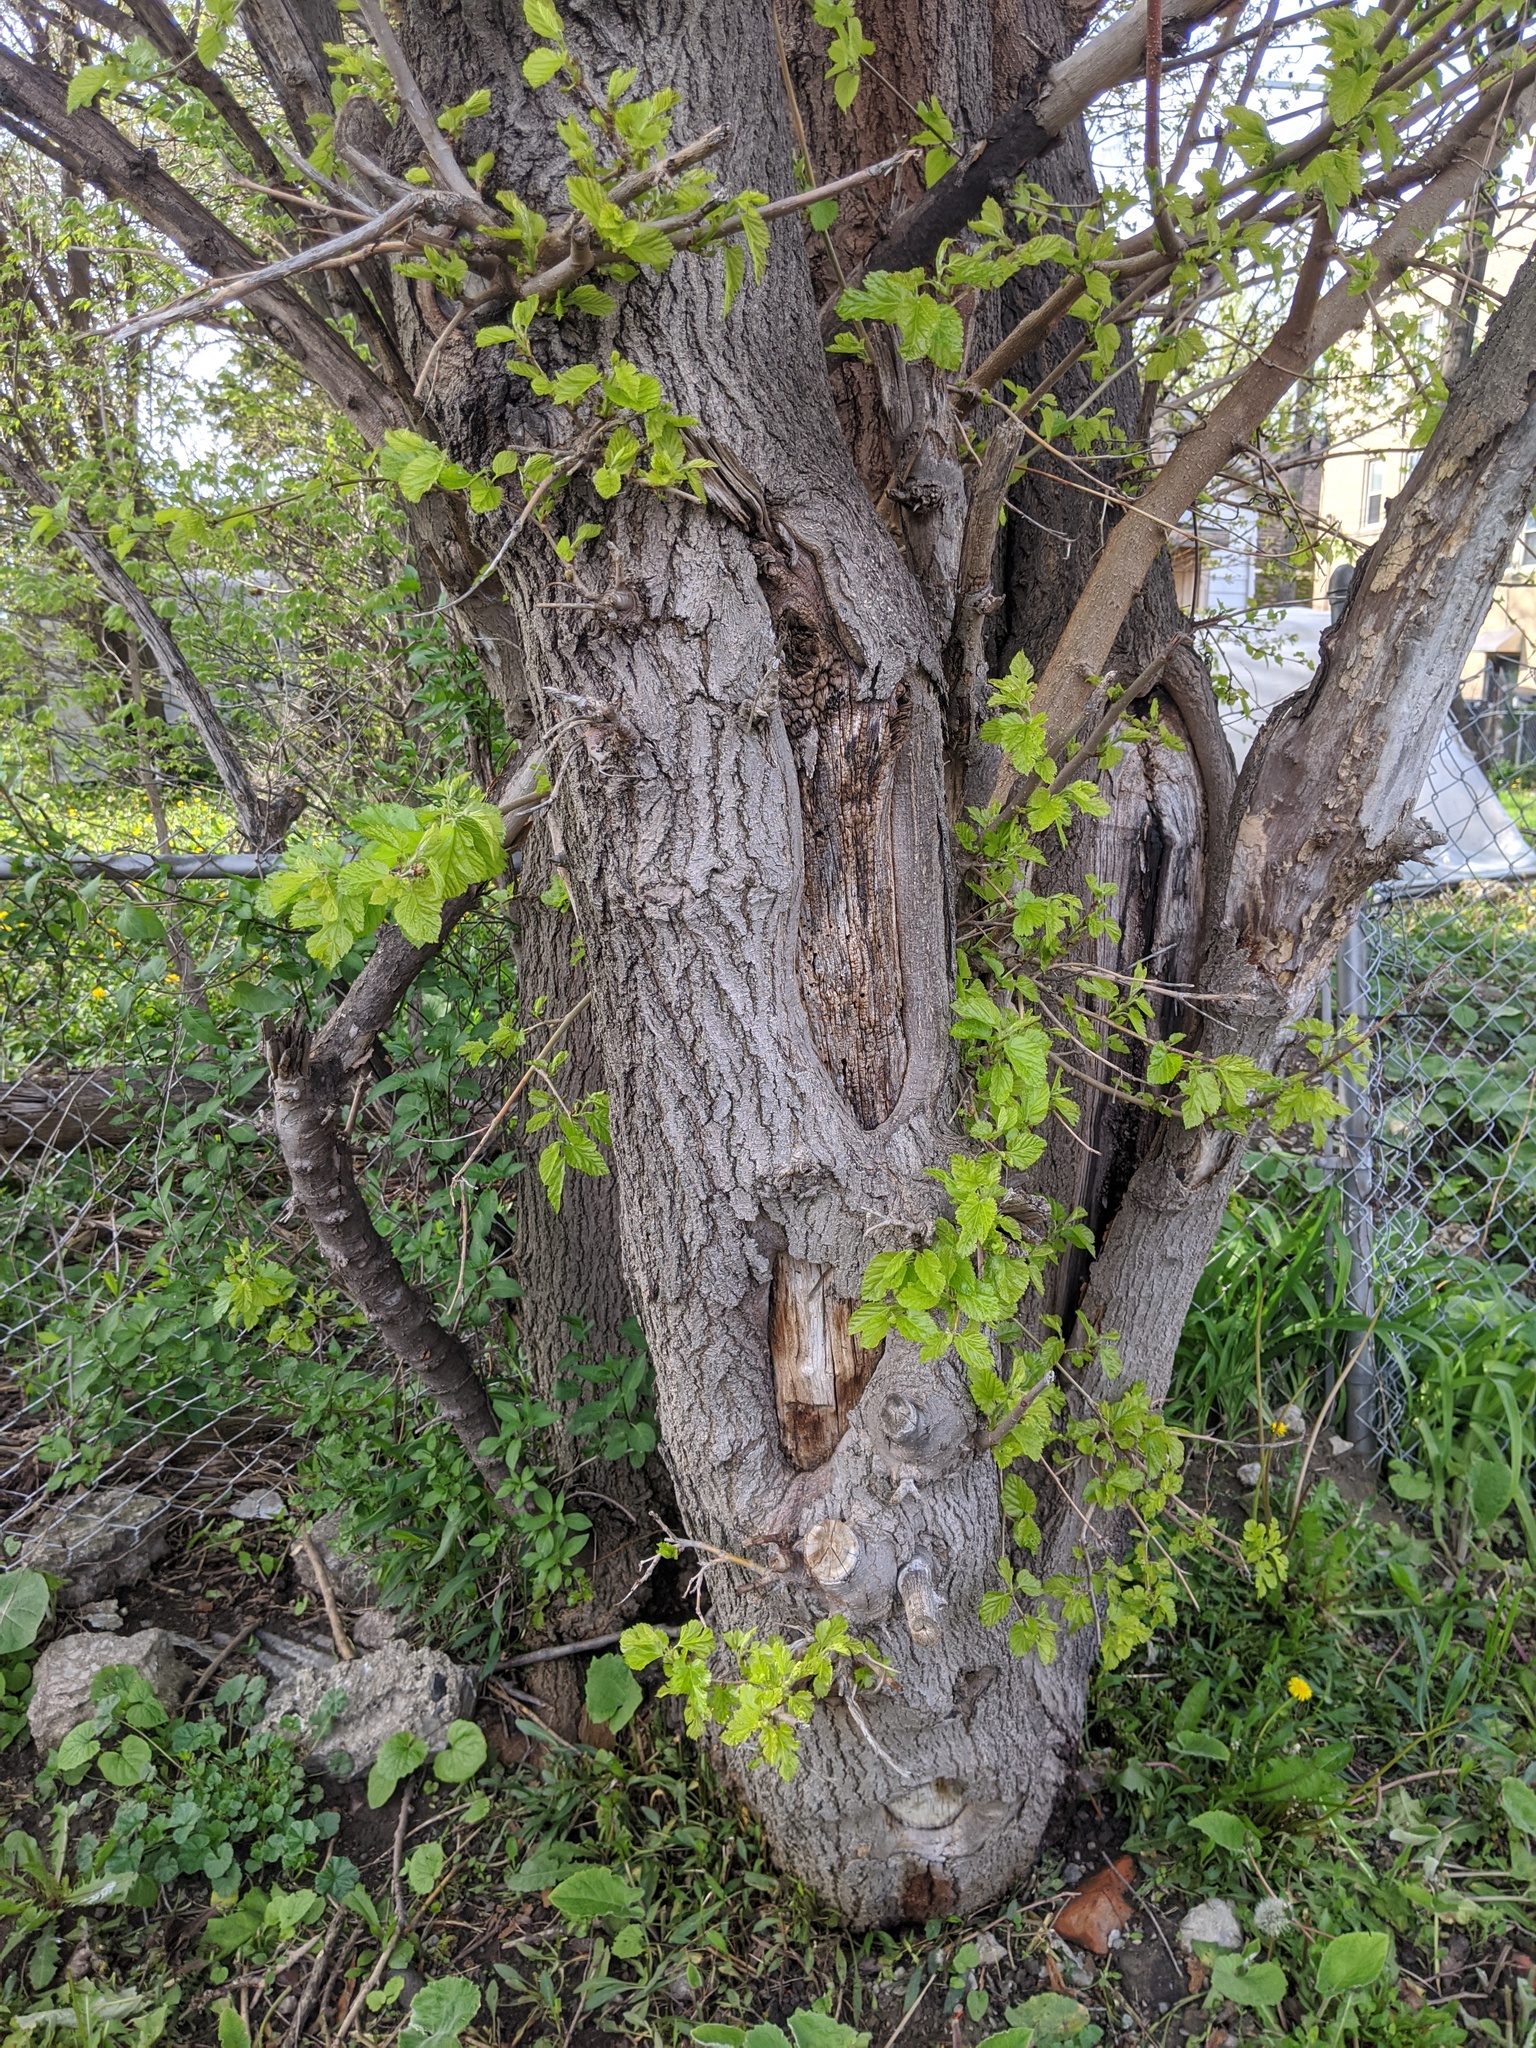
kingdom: Plantae
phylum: Tracheophyta
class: Magnoliopsida
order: Rosales
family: Moraceae
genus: Morus
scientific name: Morus alba
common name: White mulberry
